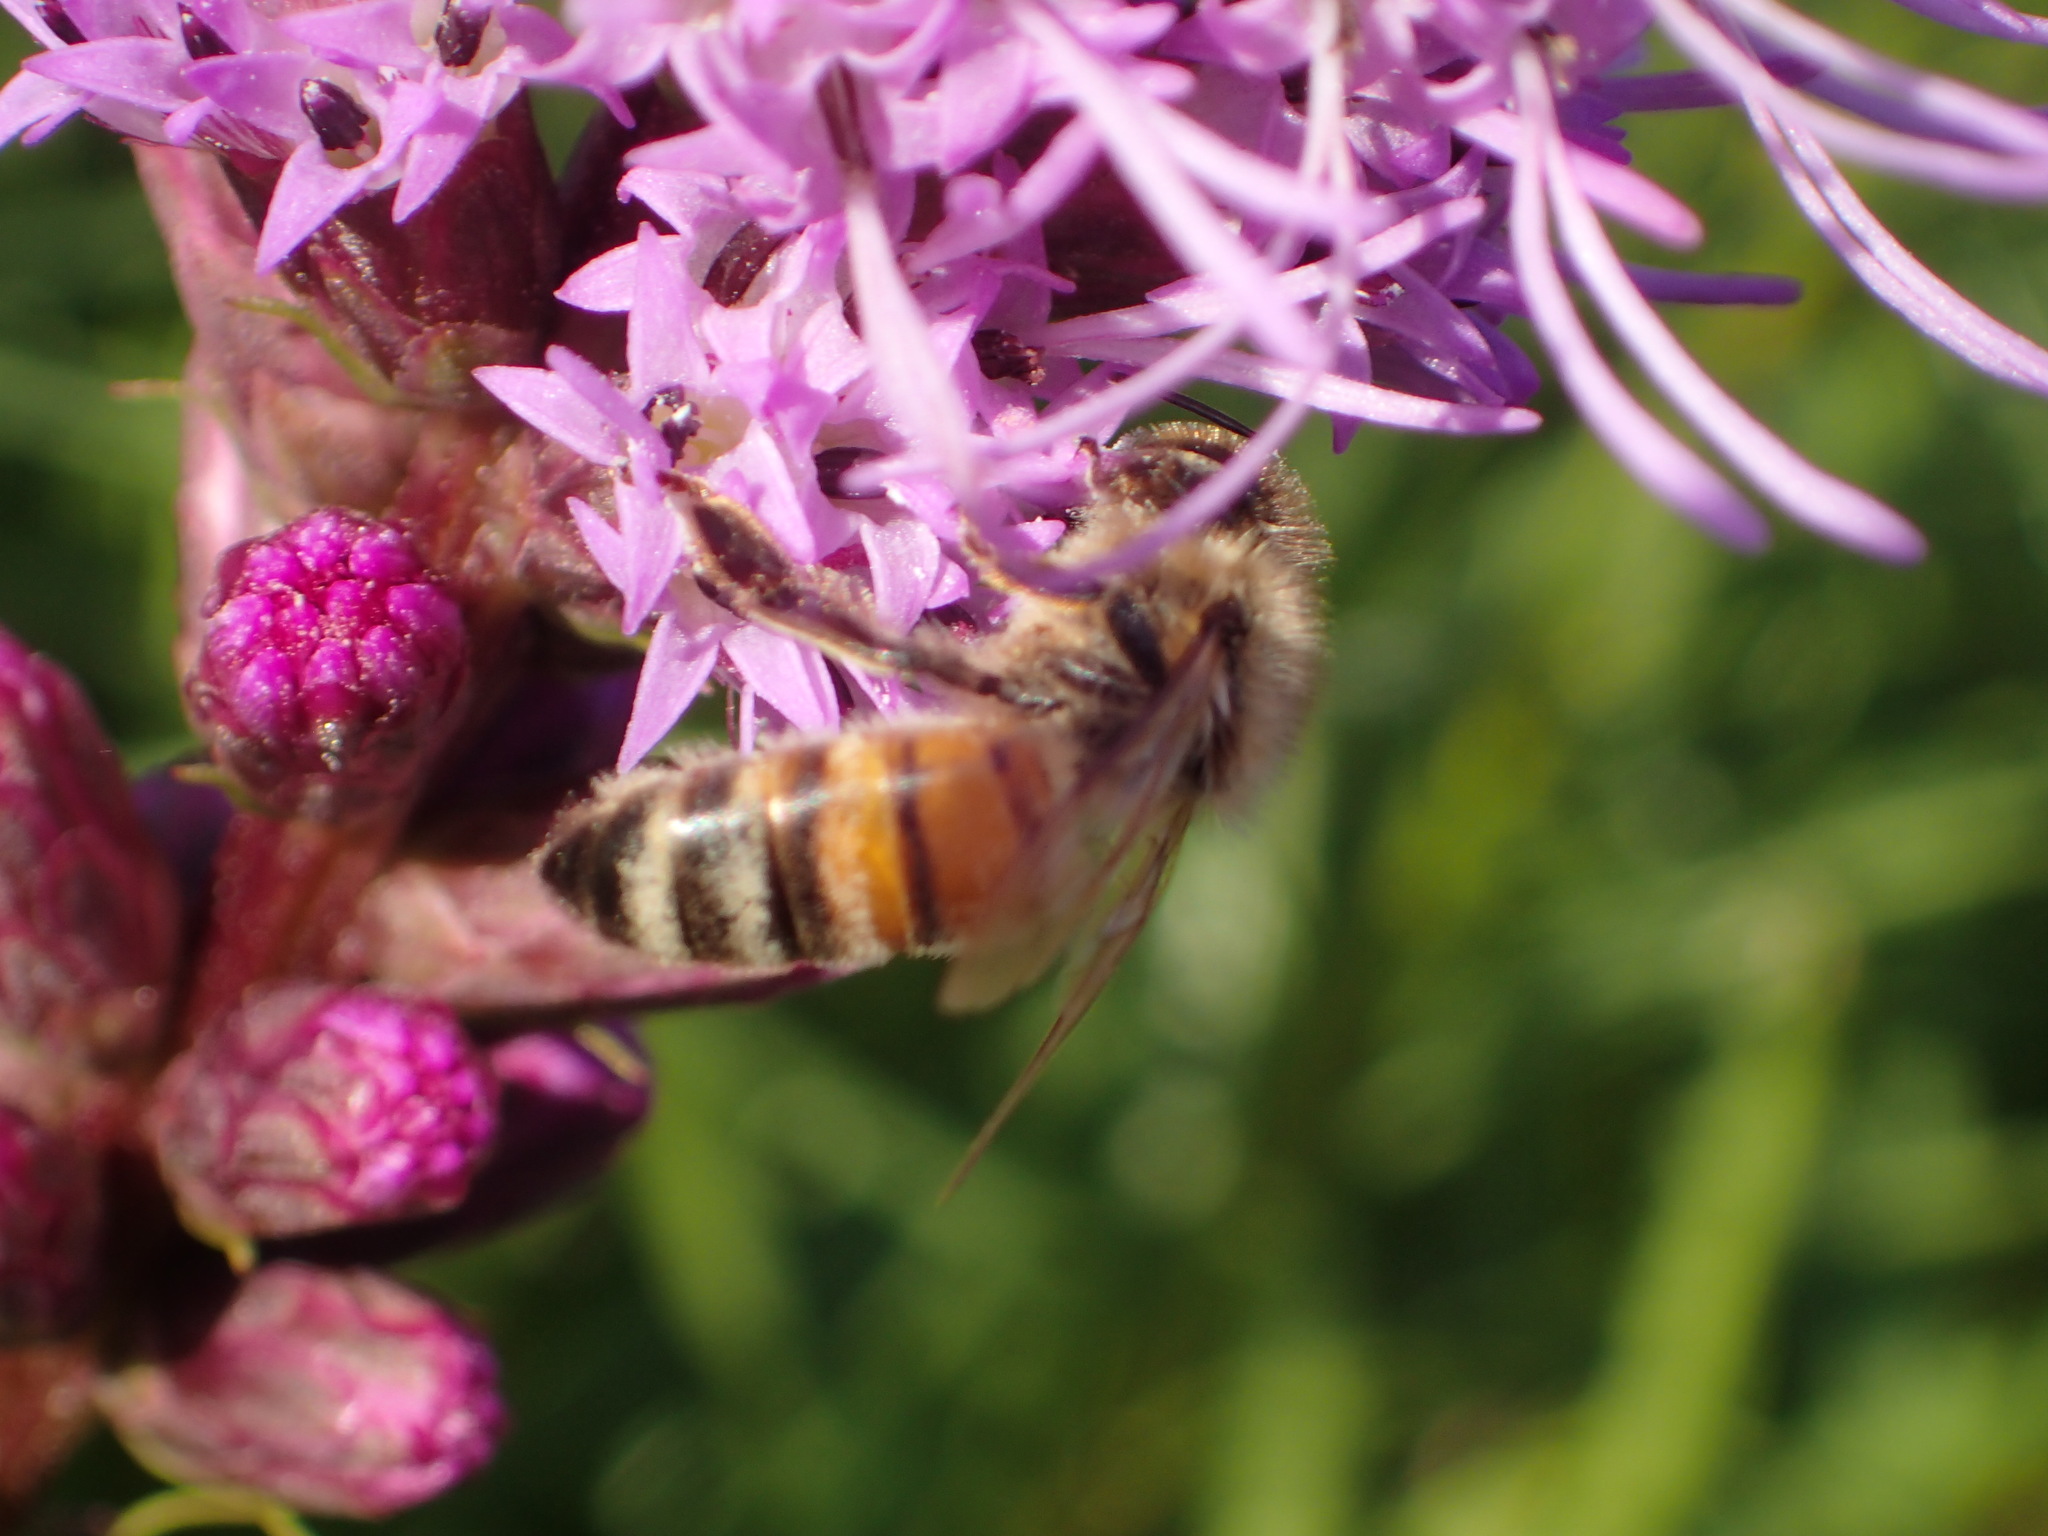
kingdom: Animalia
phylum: Arthropoda
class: Insecta
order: Hymenoptera
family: Apidae
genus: Apis
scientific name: Apis mellifera
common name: Honey bee
